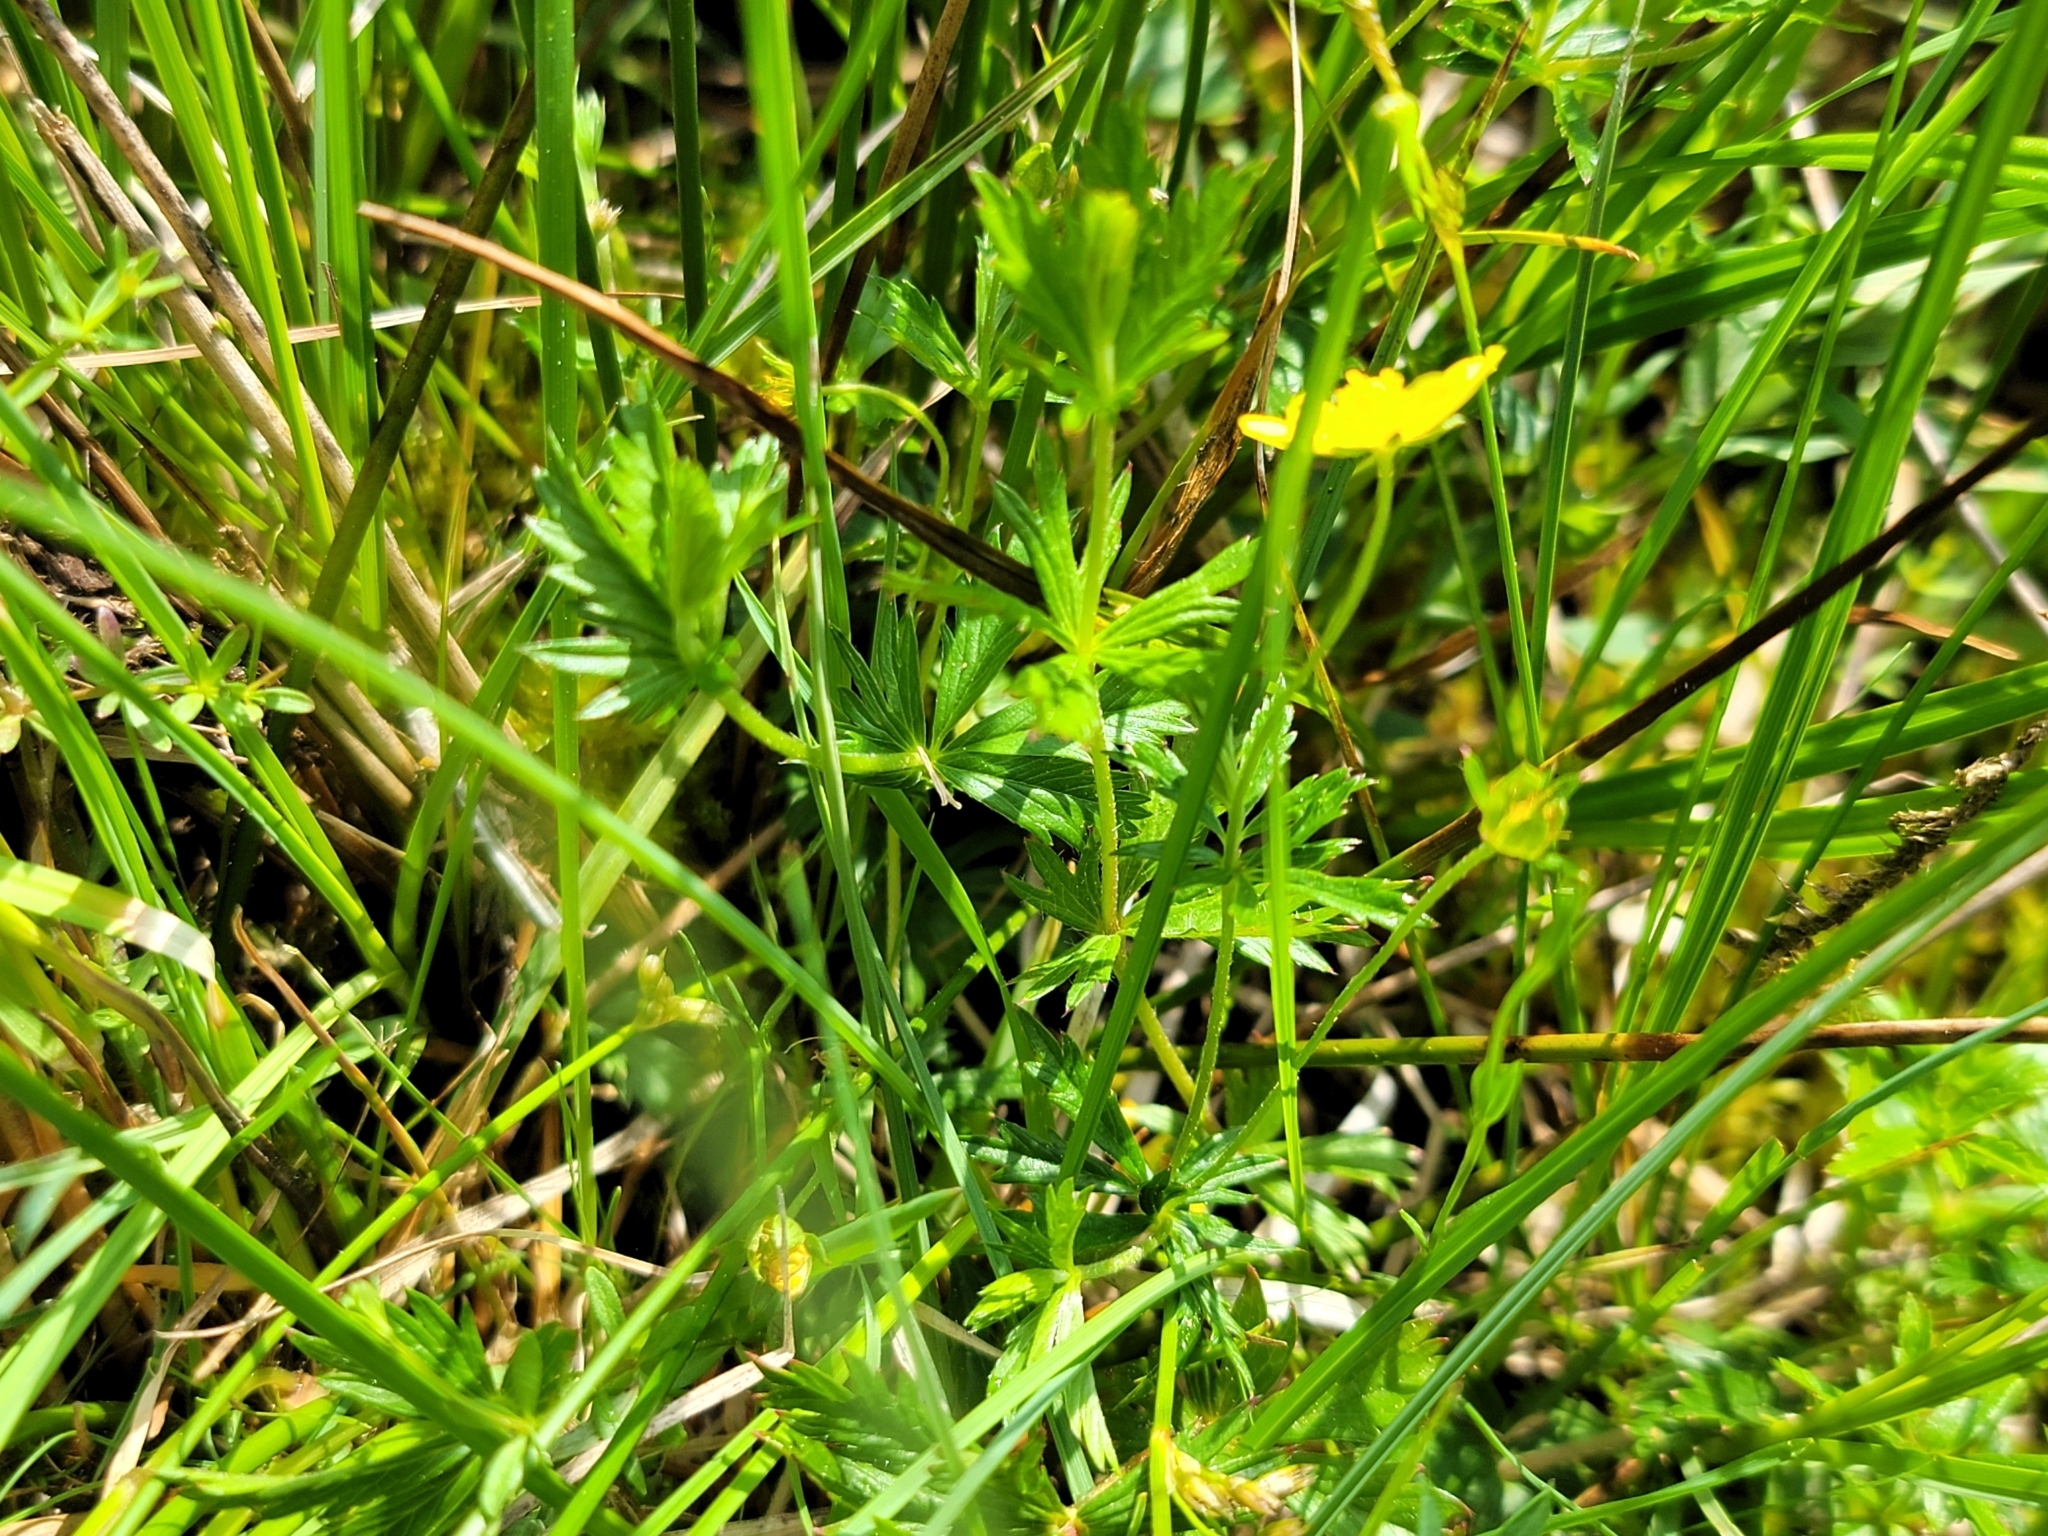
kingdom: Plantae
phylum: Tracheophyta
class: Magnoliopsida
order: Rosales
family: Rosaceae
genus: Potentilla
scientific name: Potentilla erecta
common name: Tormentil
